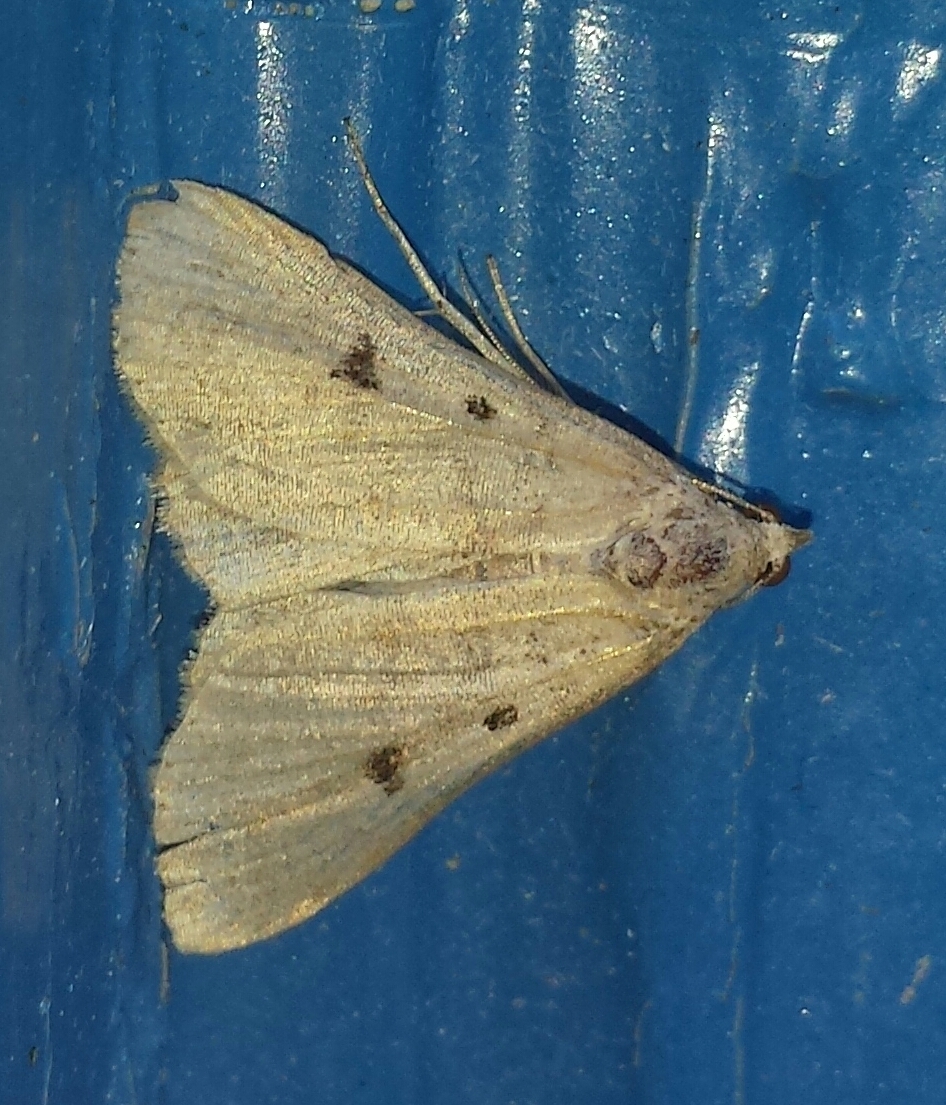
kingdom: Animalia
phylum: Arthropoda
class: Insecta
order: Lepidoptera
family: Erebidae
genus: Bleptina
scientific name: Bleptina caradrinalis
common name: Bent-winged owlet
